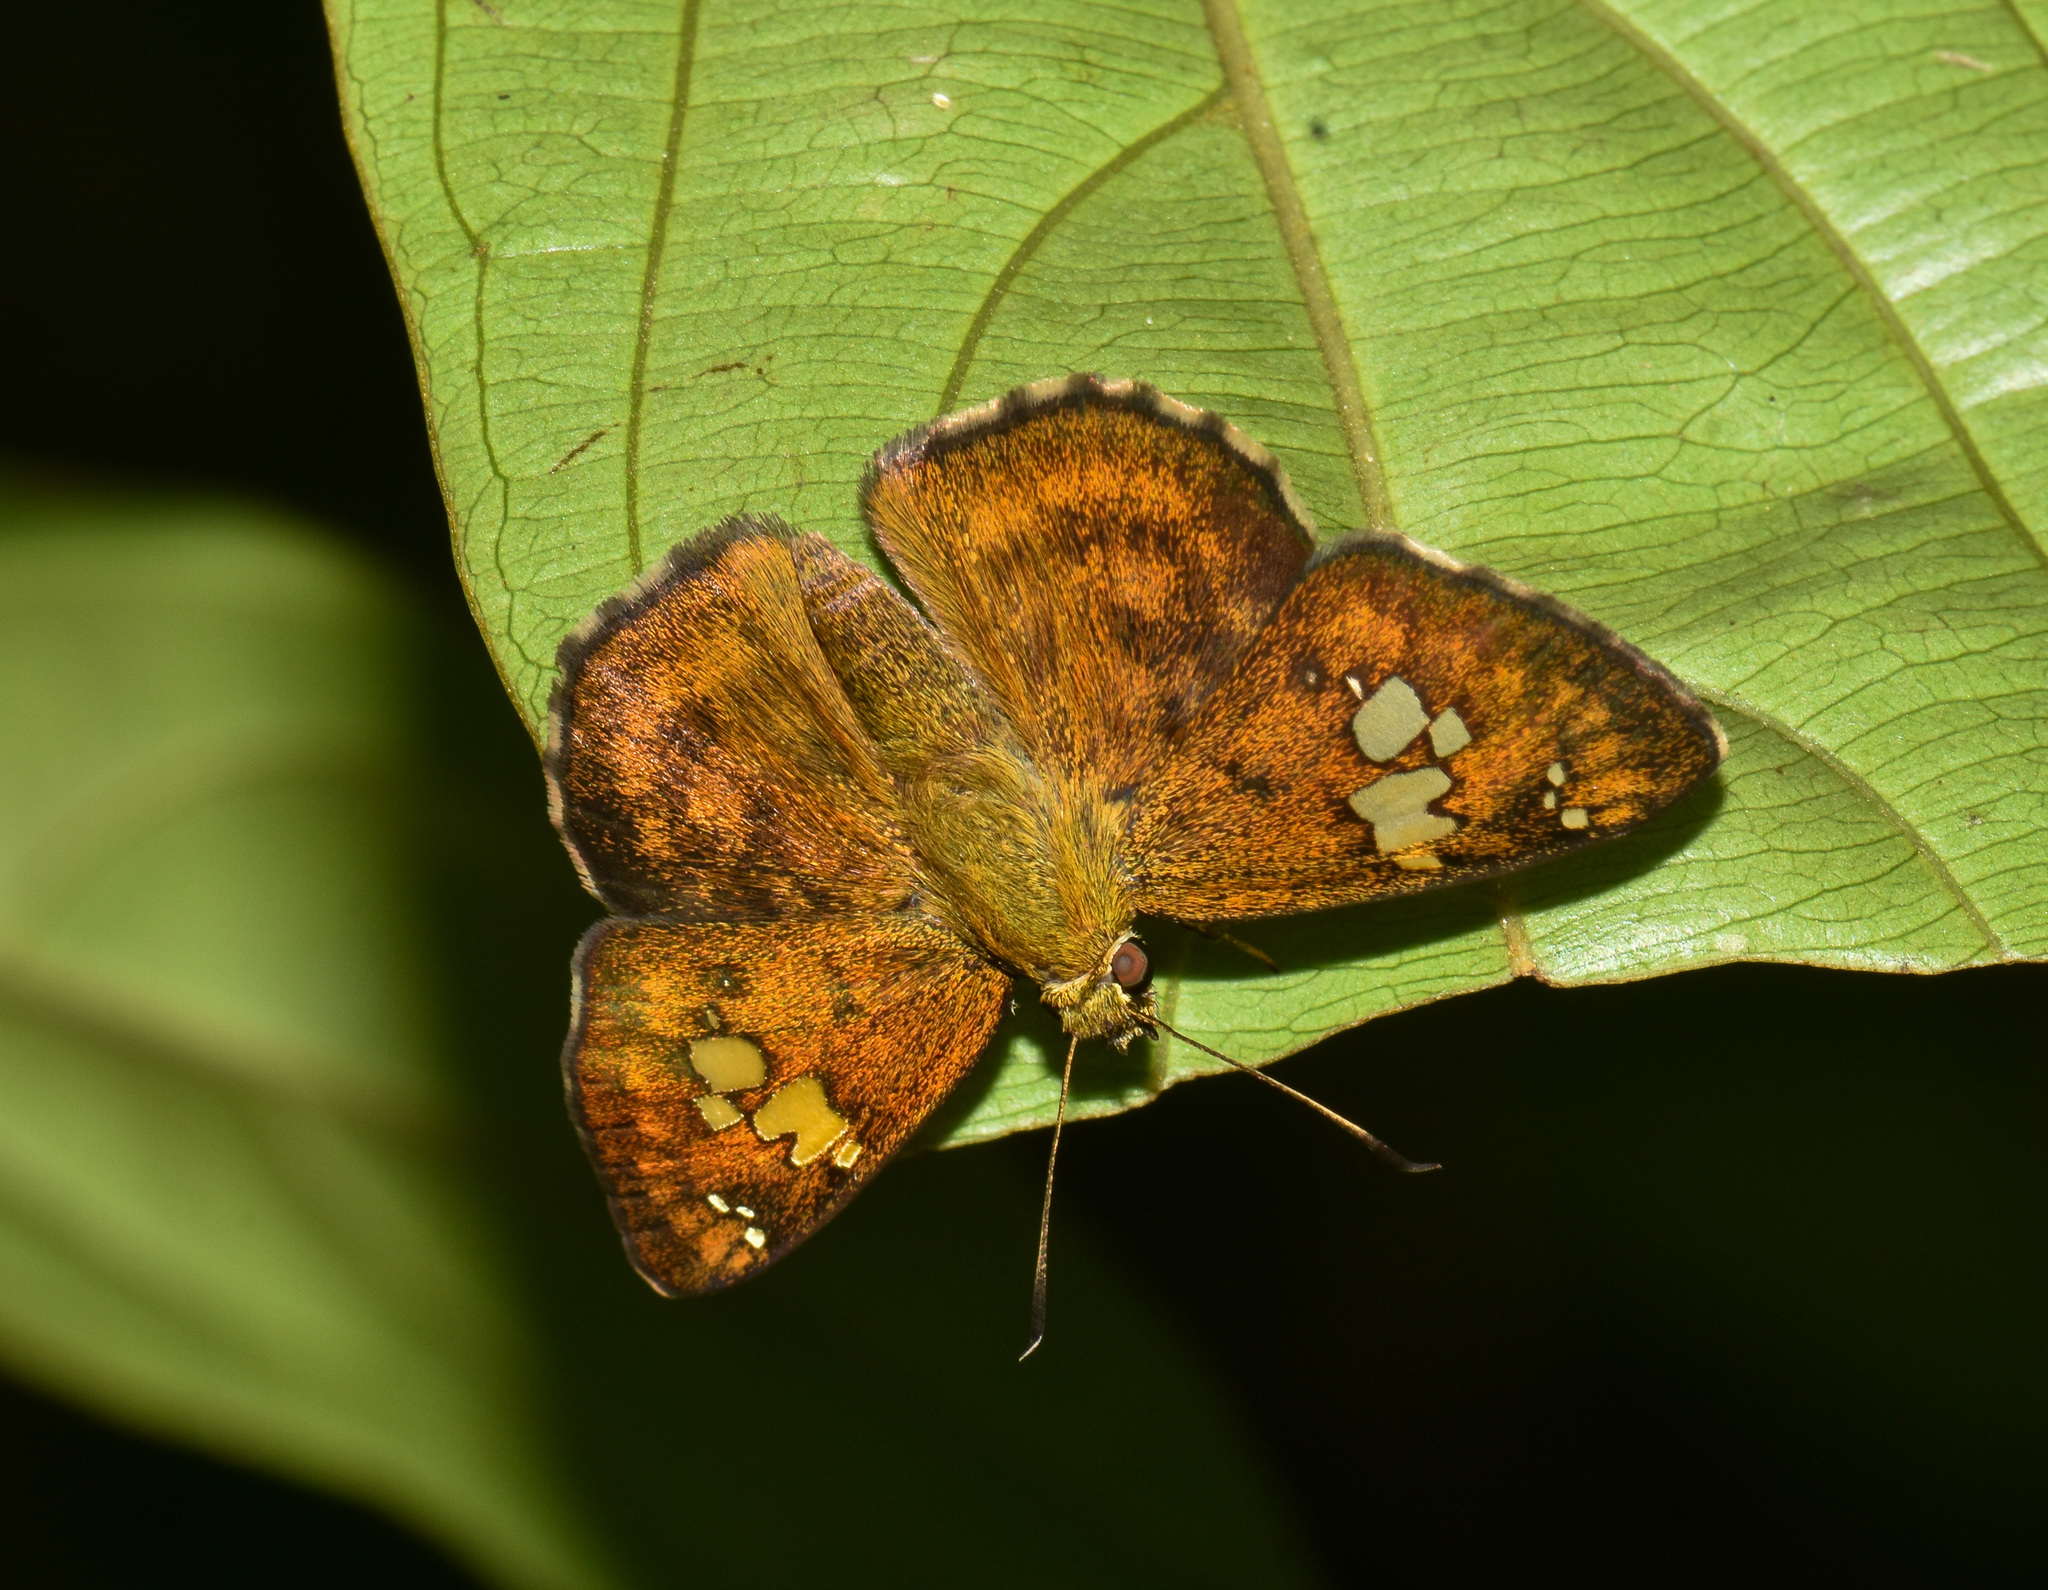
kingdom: Animalia
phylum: Arthropoda
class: Insecta
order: Lepidoptera
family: Hesperiidae
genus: Pseudocoladenia
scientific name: Pseudocoladenia dan
